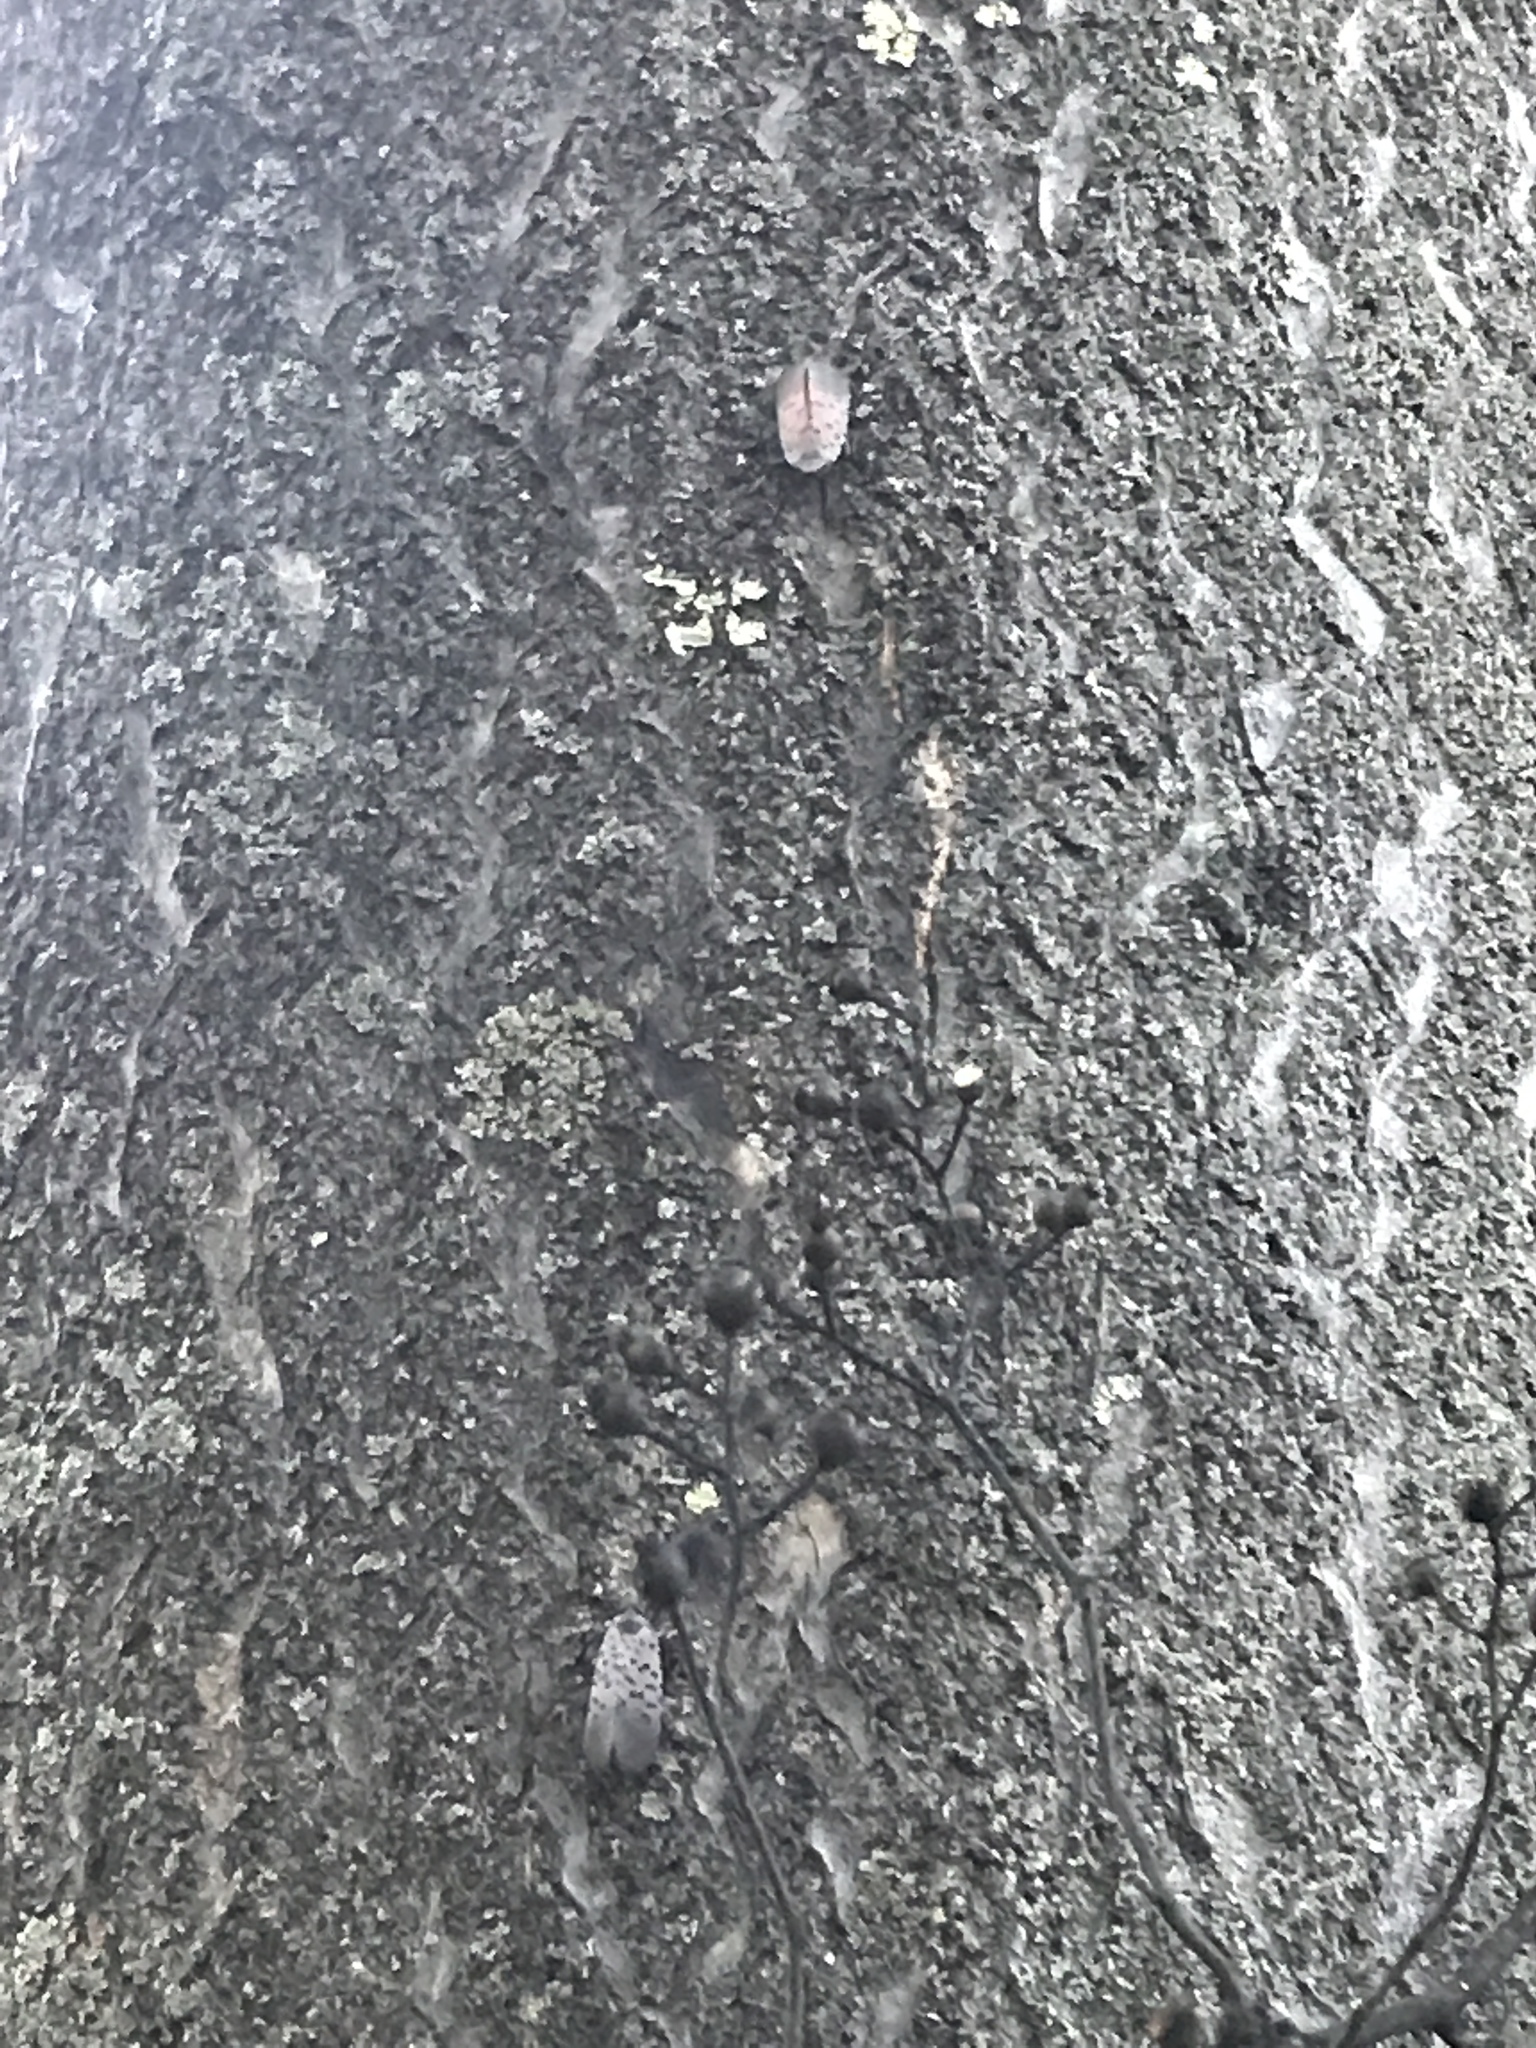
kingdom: Animalia
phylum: Arthropoda
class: Insecta
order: Hemiptera
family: Fulgoridae
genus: Lycorma
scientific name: Lycorma delicatula
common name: Spotted lanternfly
